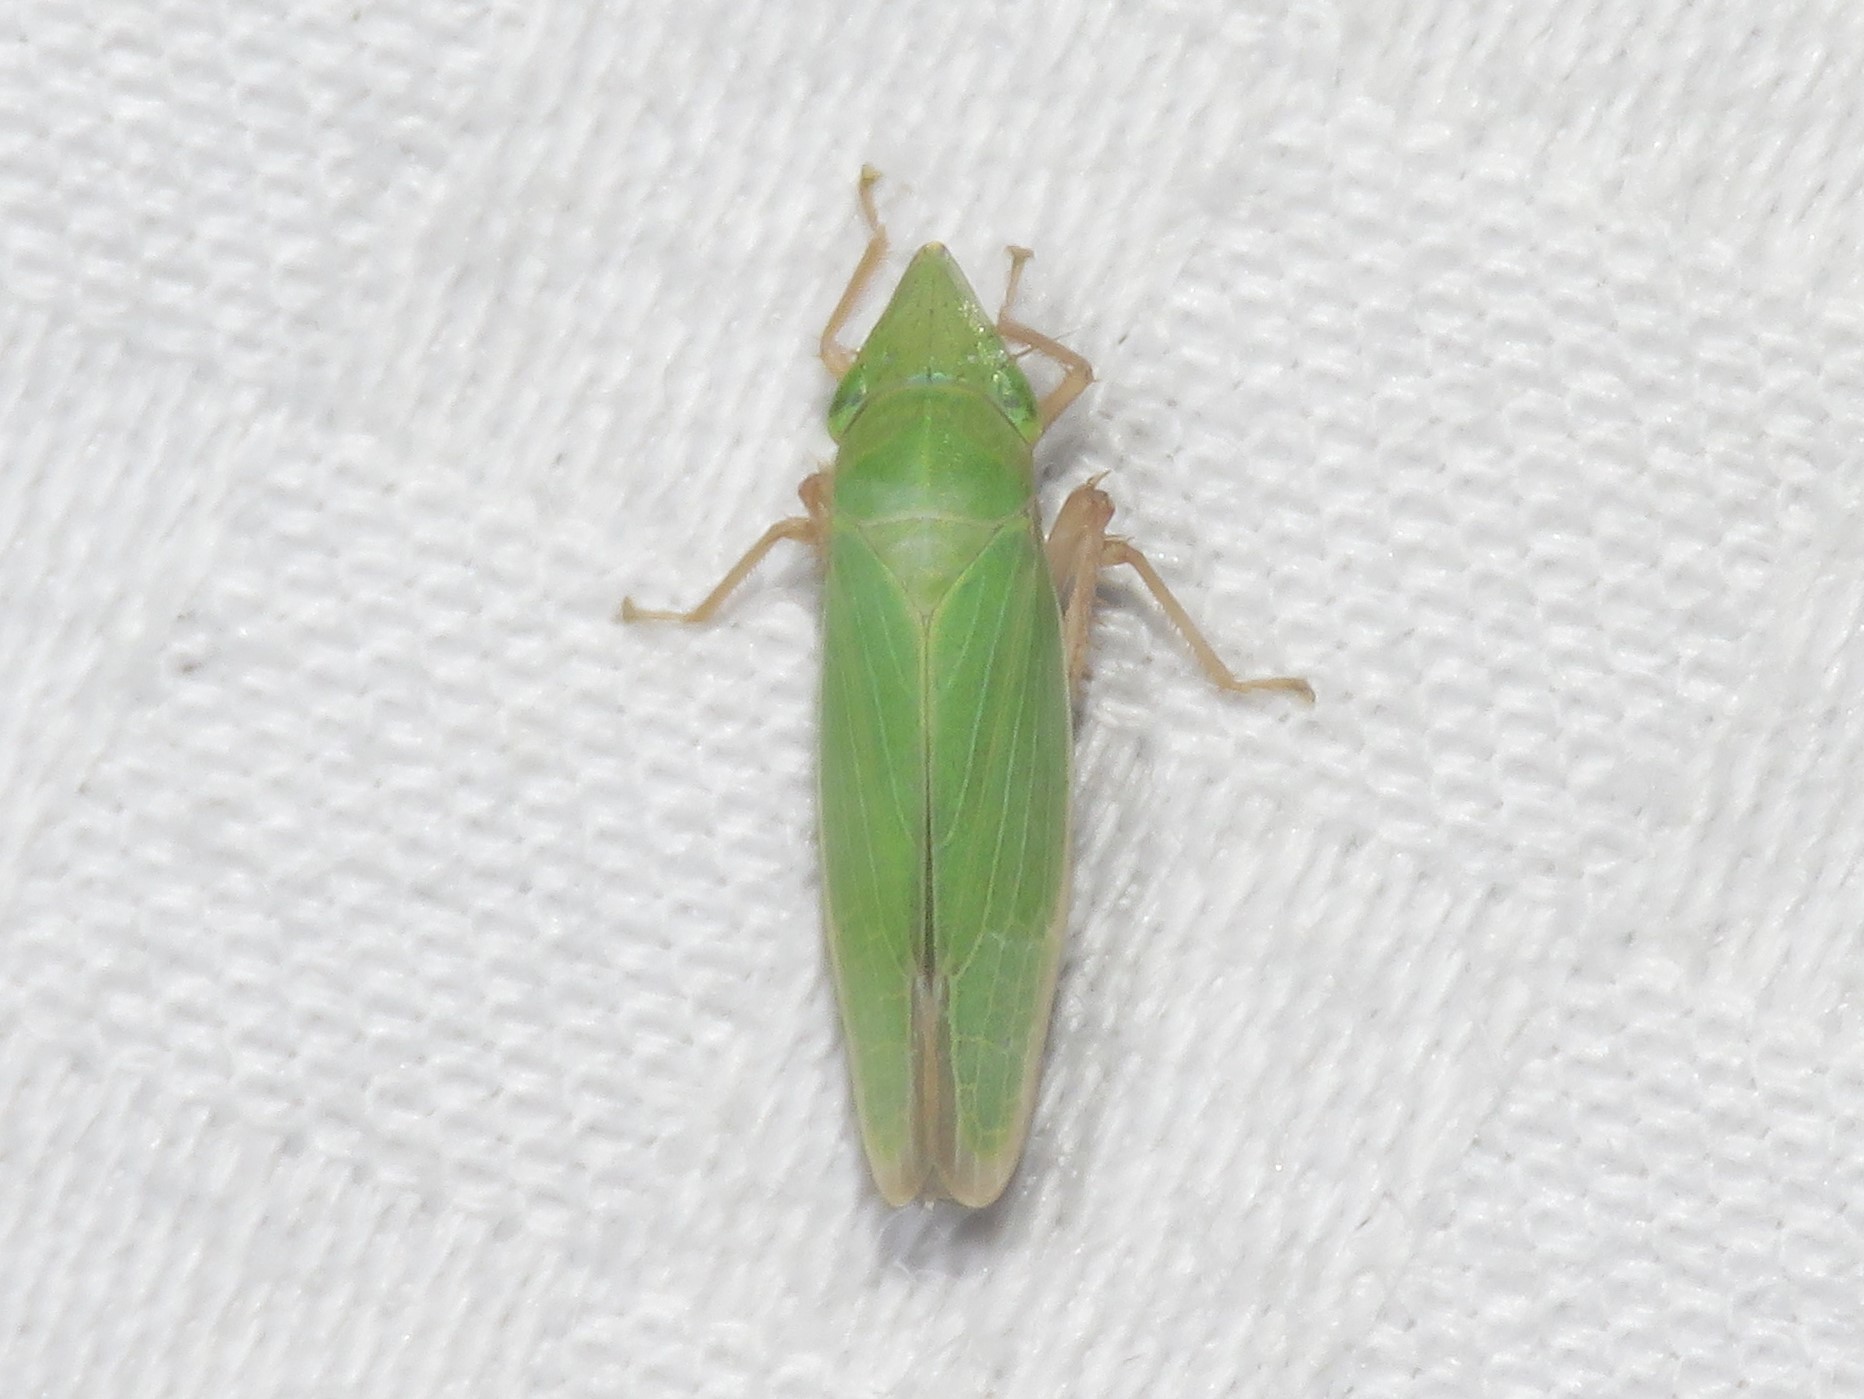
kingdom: Animalia
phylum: Arthropoda
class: Insecta
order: Hemiptera
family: Cicadellidae
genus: Draeculacephala
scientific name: Draeculacephala antica
